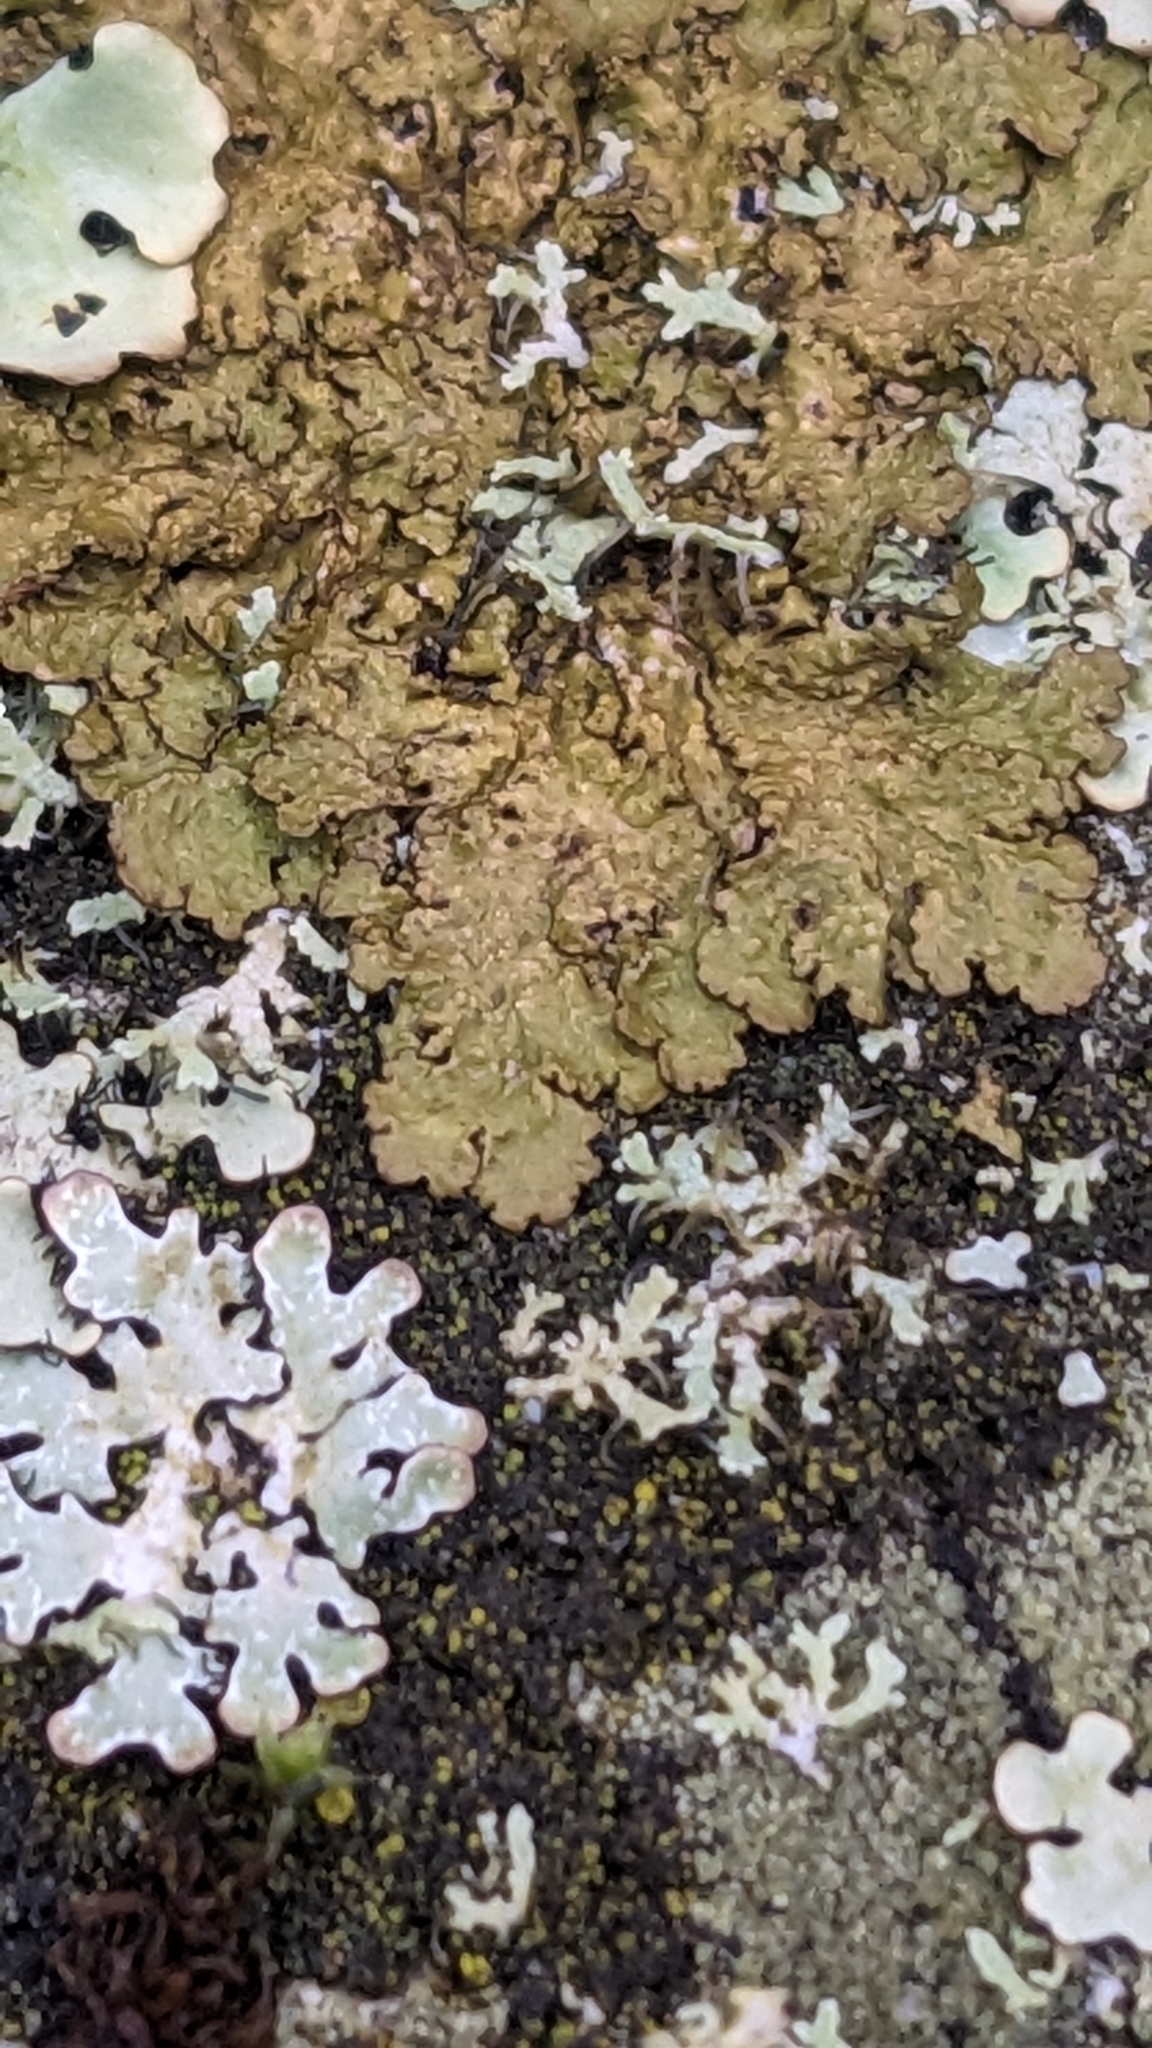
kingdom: Fungi
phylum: Ascomycota
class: Lecanoromycetes
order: Lecanorales
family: Parmeliaceae
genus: Melanelixia
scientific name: Melanelixia subaurifera
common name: Abraded camouflage lichen
